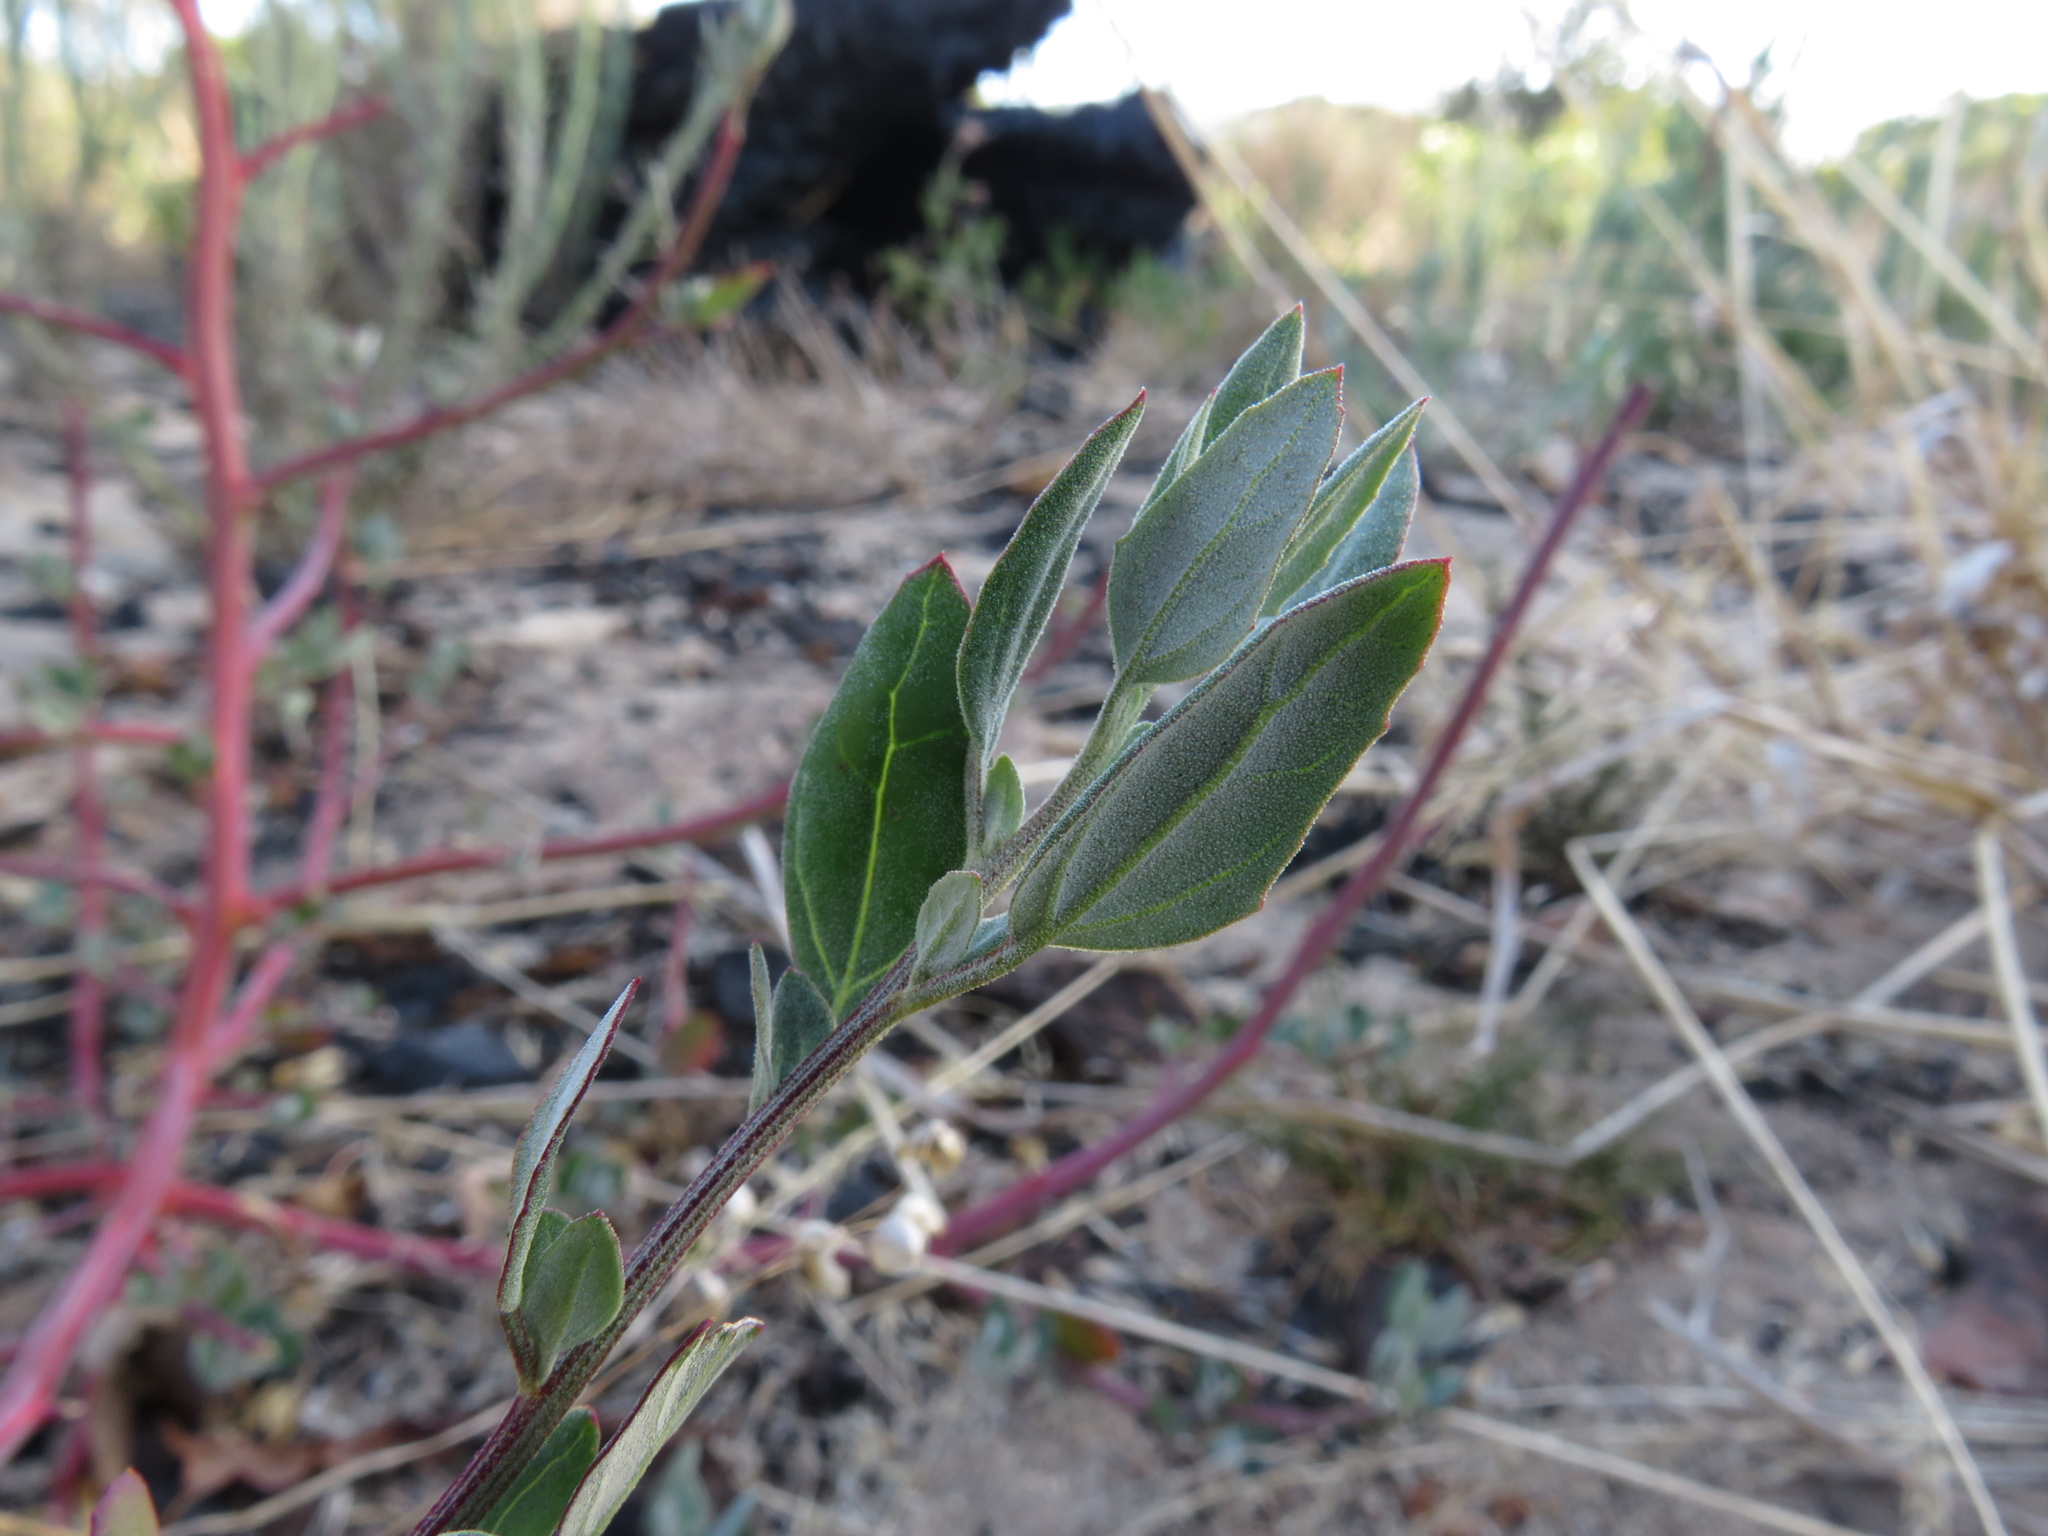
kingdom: Plantae
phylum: Tracheophyta
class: Magnoliopsida
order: Caryophyllales
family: Amaranthaceae
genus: Chenopodium
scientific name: Chenopodium album
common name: Fat-hen
